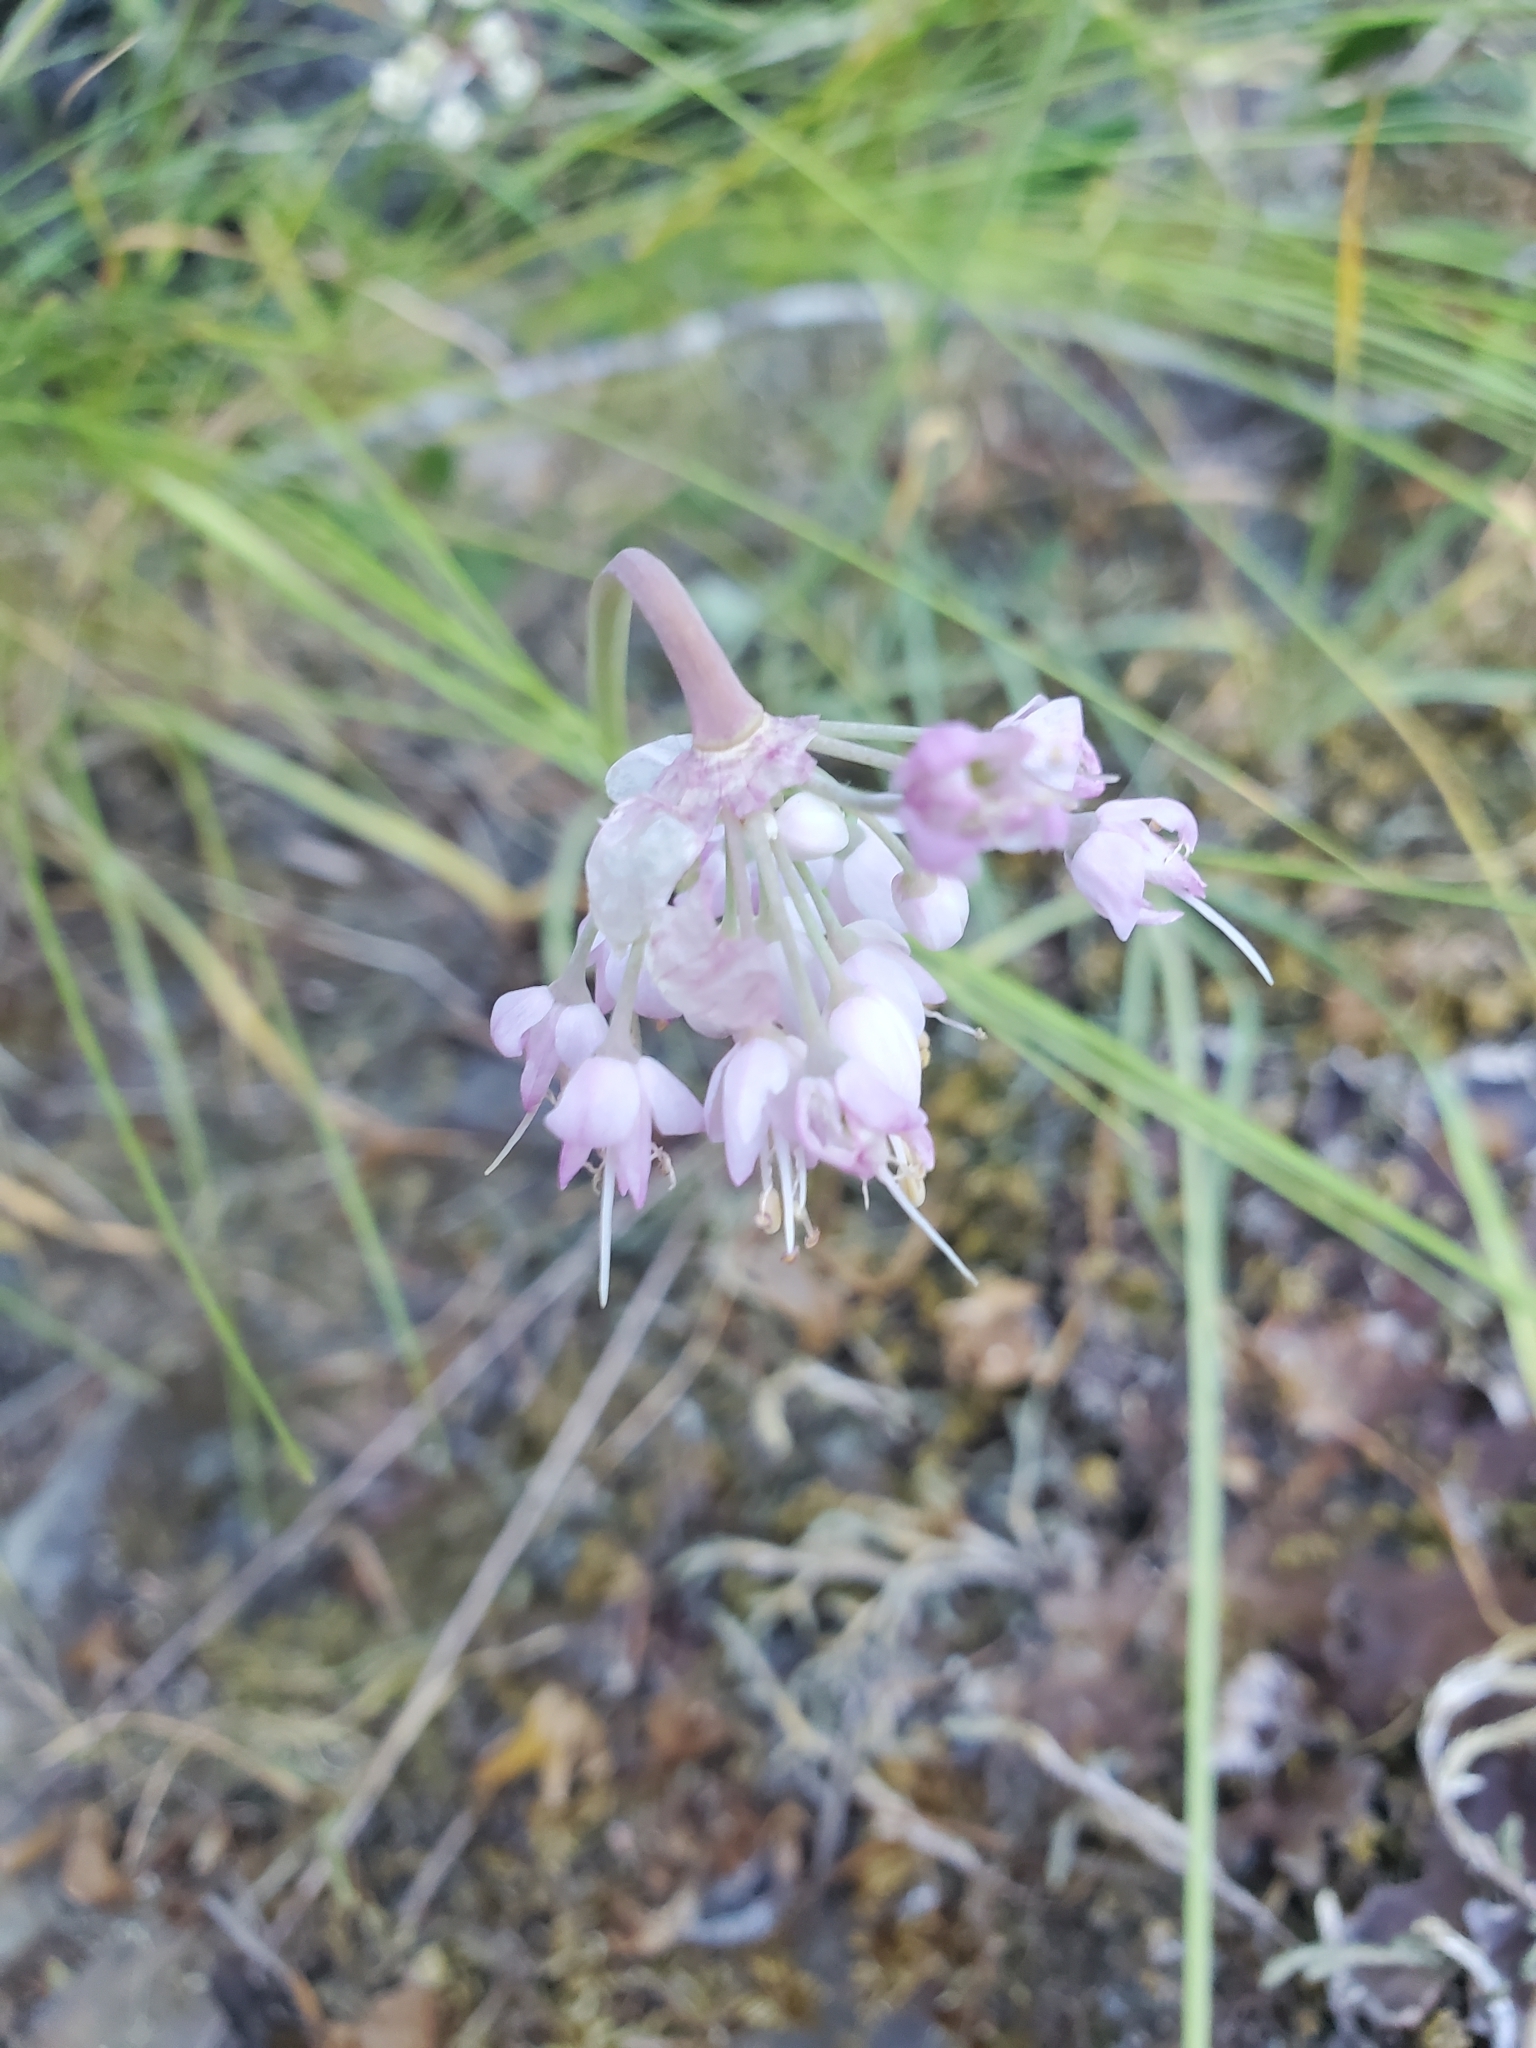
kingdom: Plantae
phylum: Tracheophyta
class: Liliopsida
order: Asparagales
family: Amaryllidaceae
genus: Allium
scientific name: Allium cernuum
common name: Nodding onion
